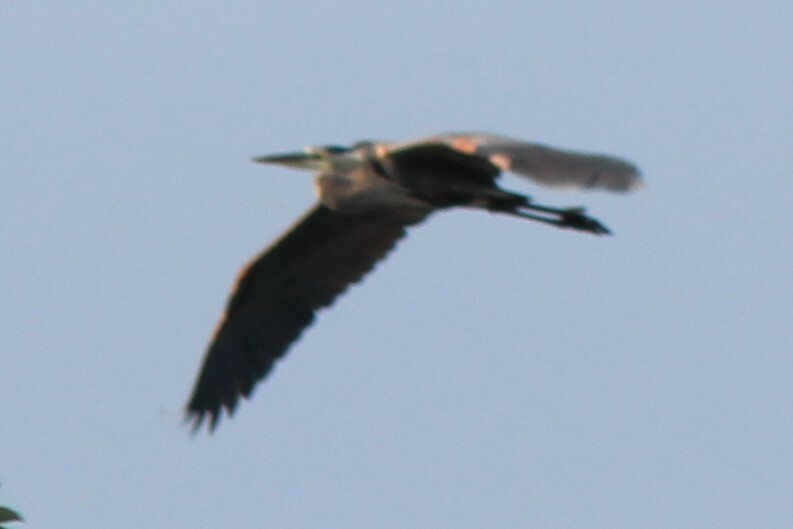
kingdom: Animalia
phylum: Chordata
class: Aves
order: Pelecaniformes
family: Ardeidae
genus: Ardea
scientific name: Ardea herodias
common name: Great blue heron
